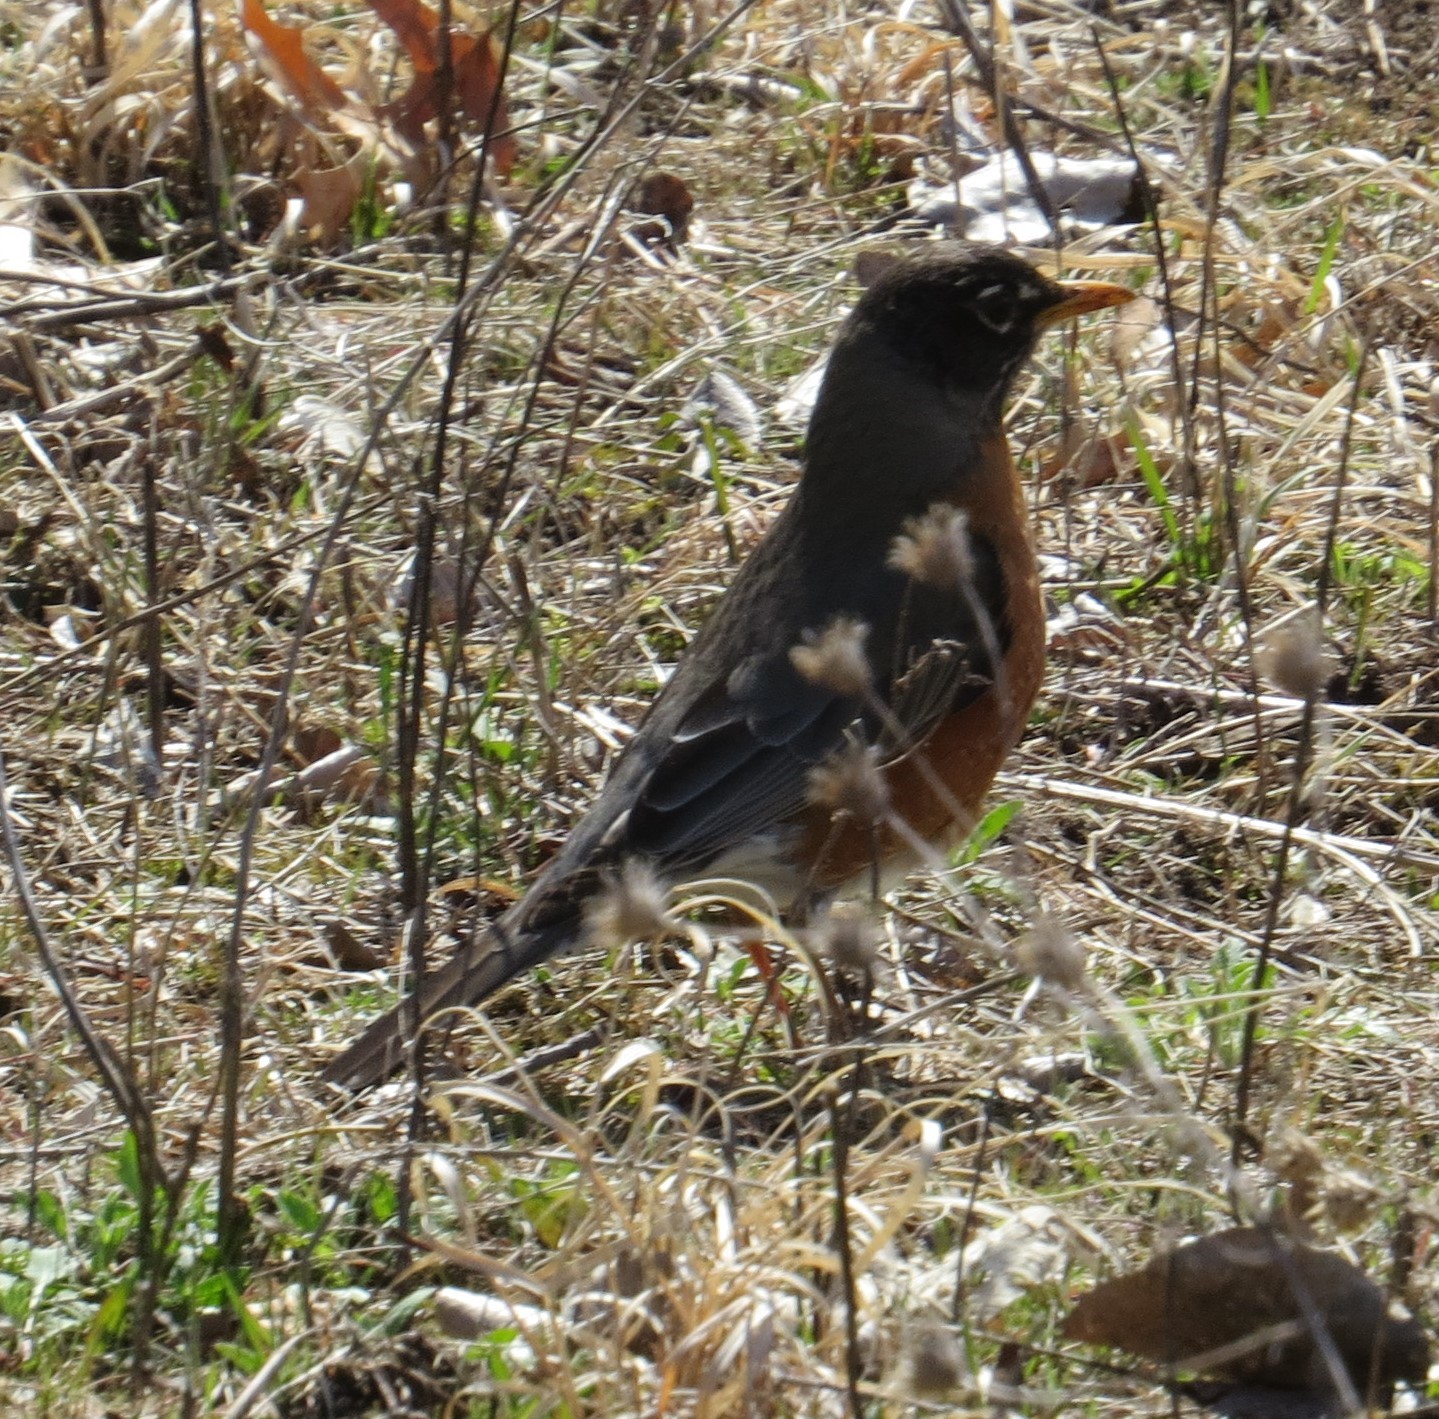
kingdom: Animalia
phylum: Chordata
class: Aves
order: Passeriformes
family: Turdidae
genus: Turdus
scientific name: Turdus migratorius
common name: American robin
